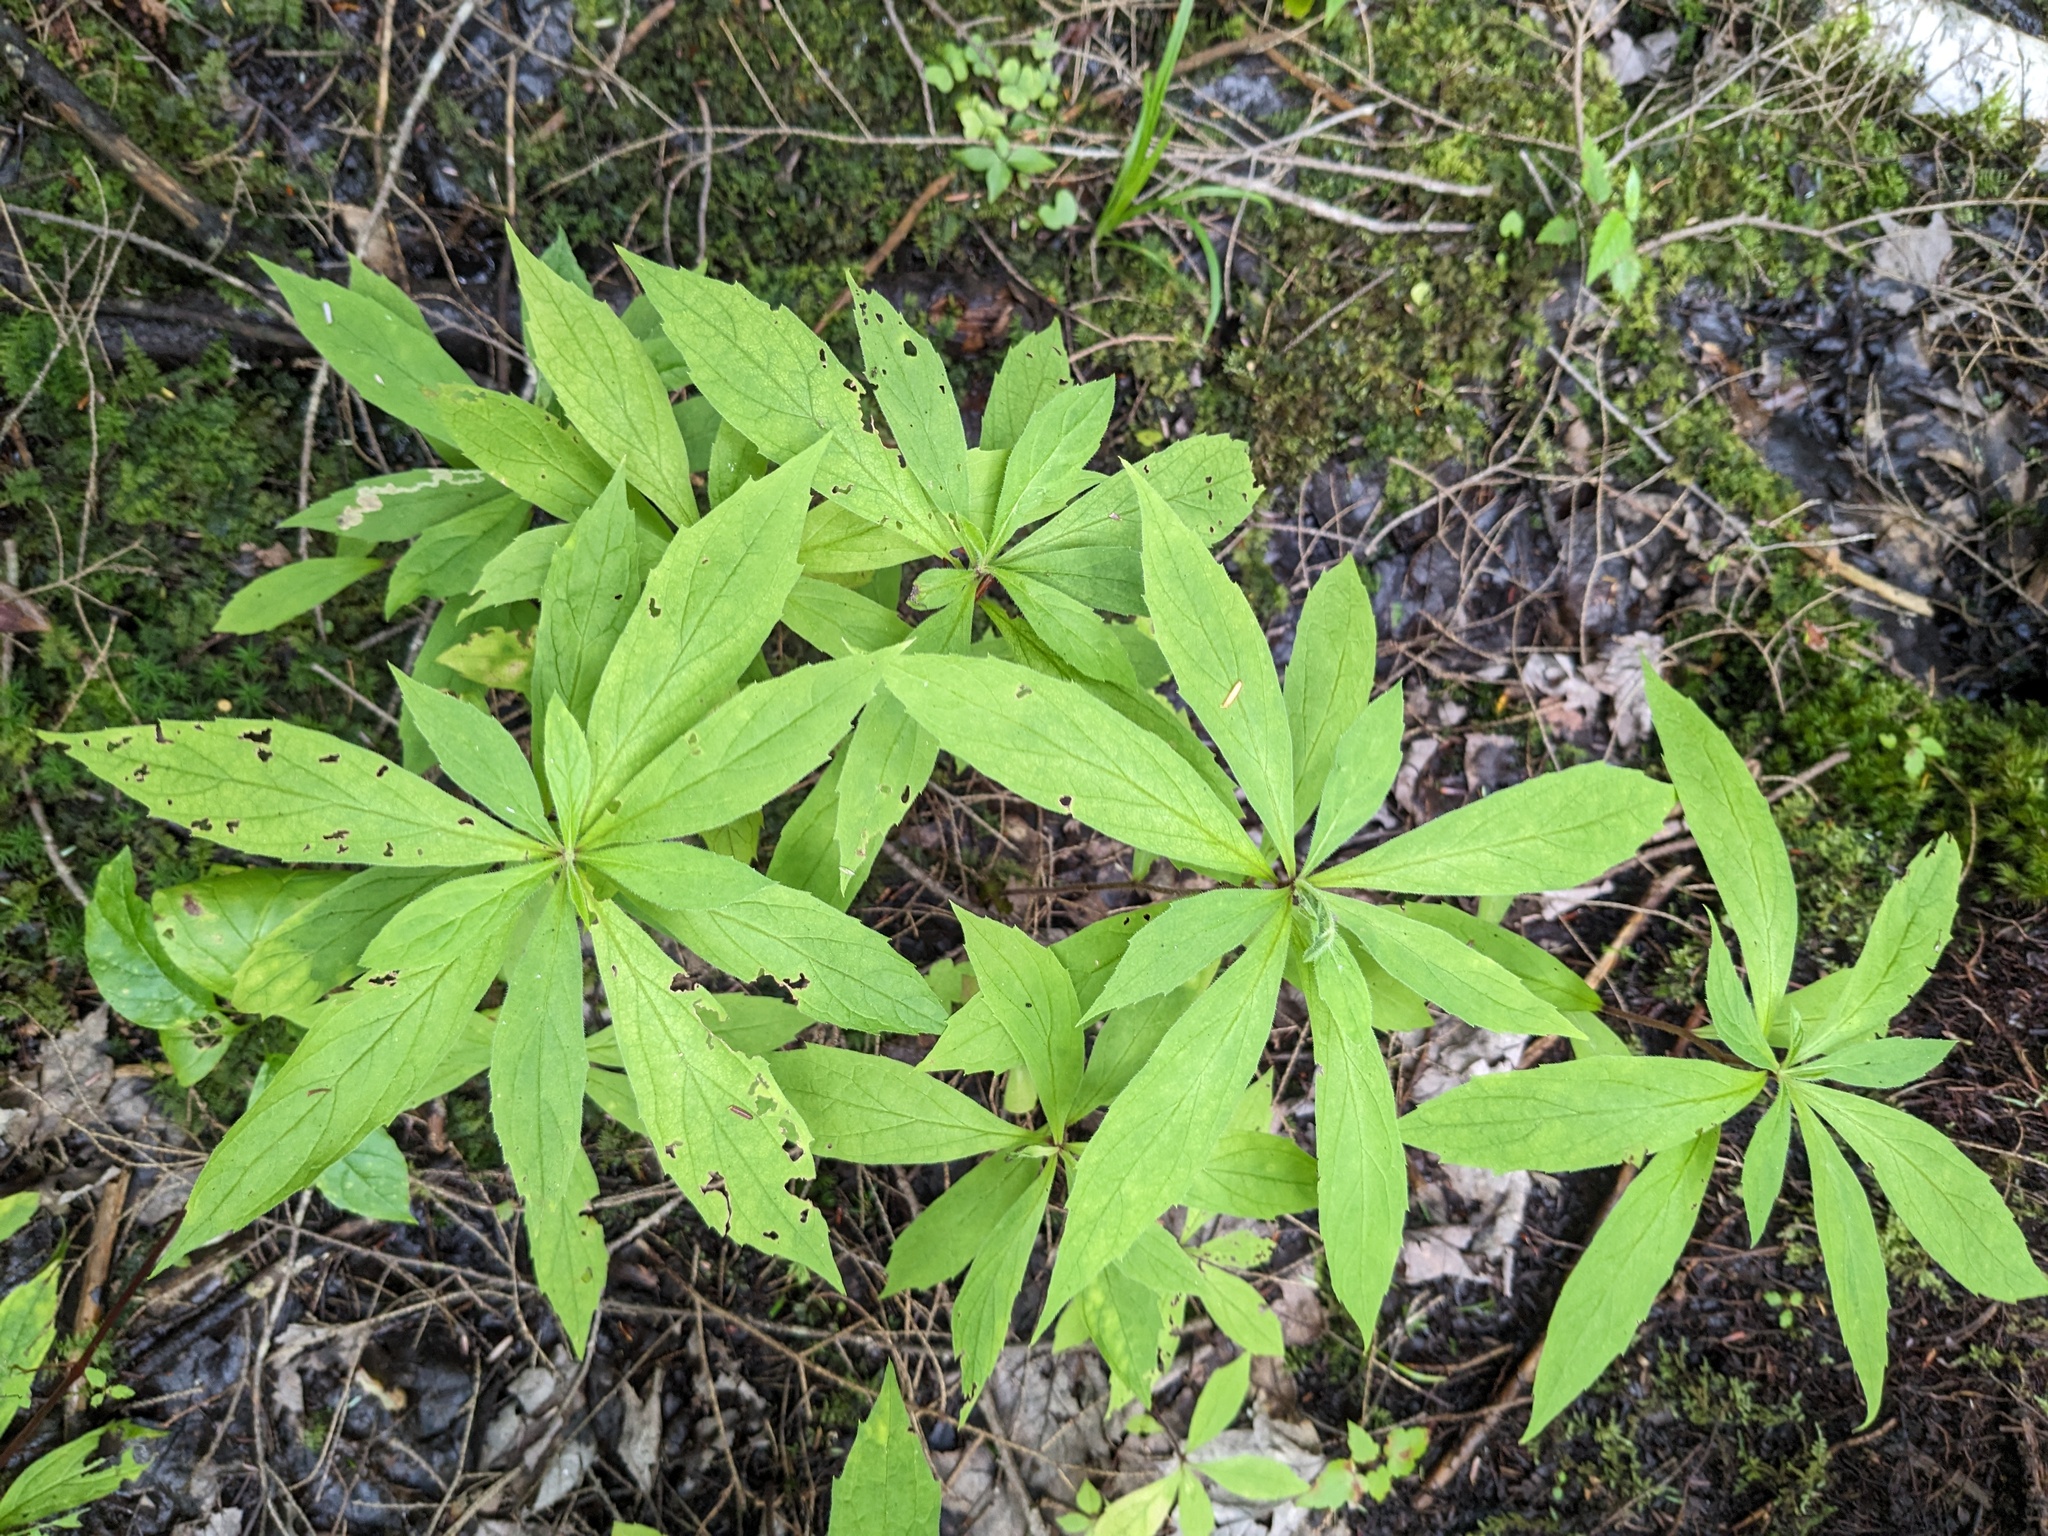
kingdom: Plantae
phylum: Tracheophyta
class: Magnoliopsida
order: Asterales
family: Asteraceae
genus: Oclemena
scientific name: Oclemena acuminata
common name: Mountain aster
